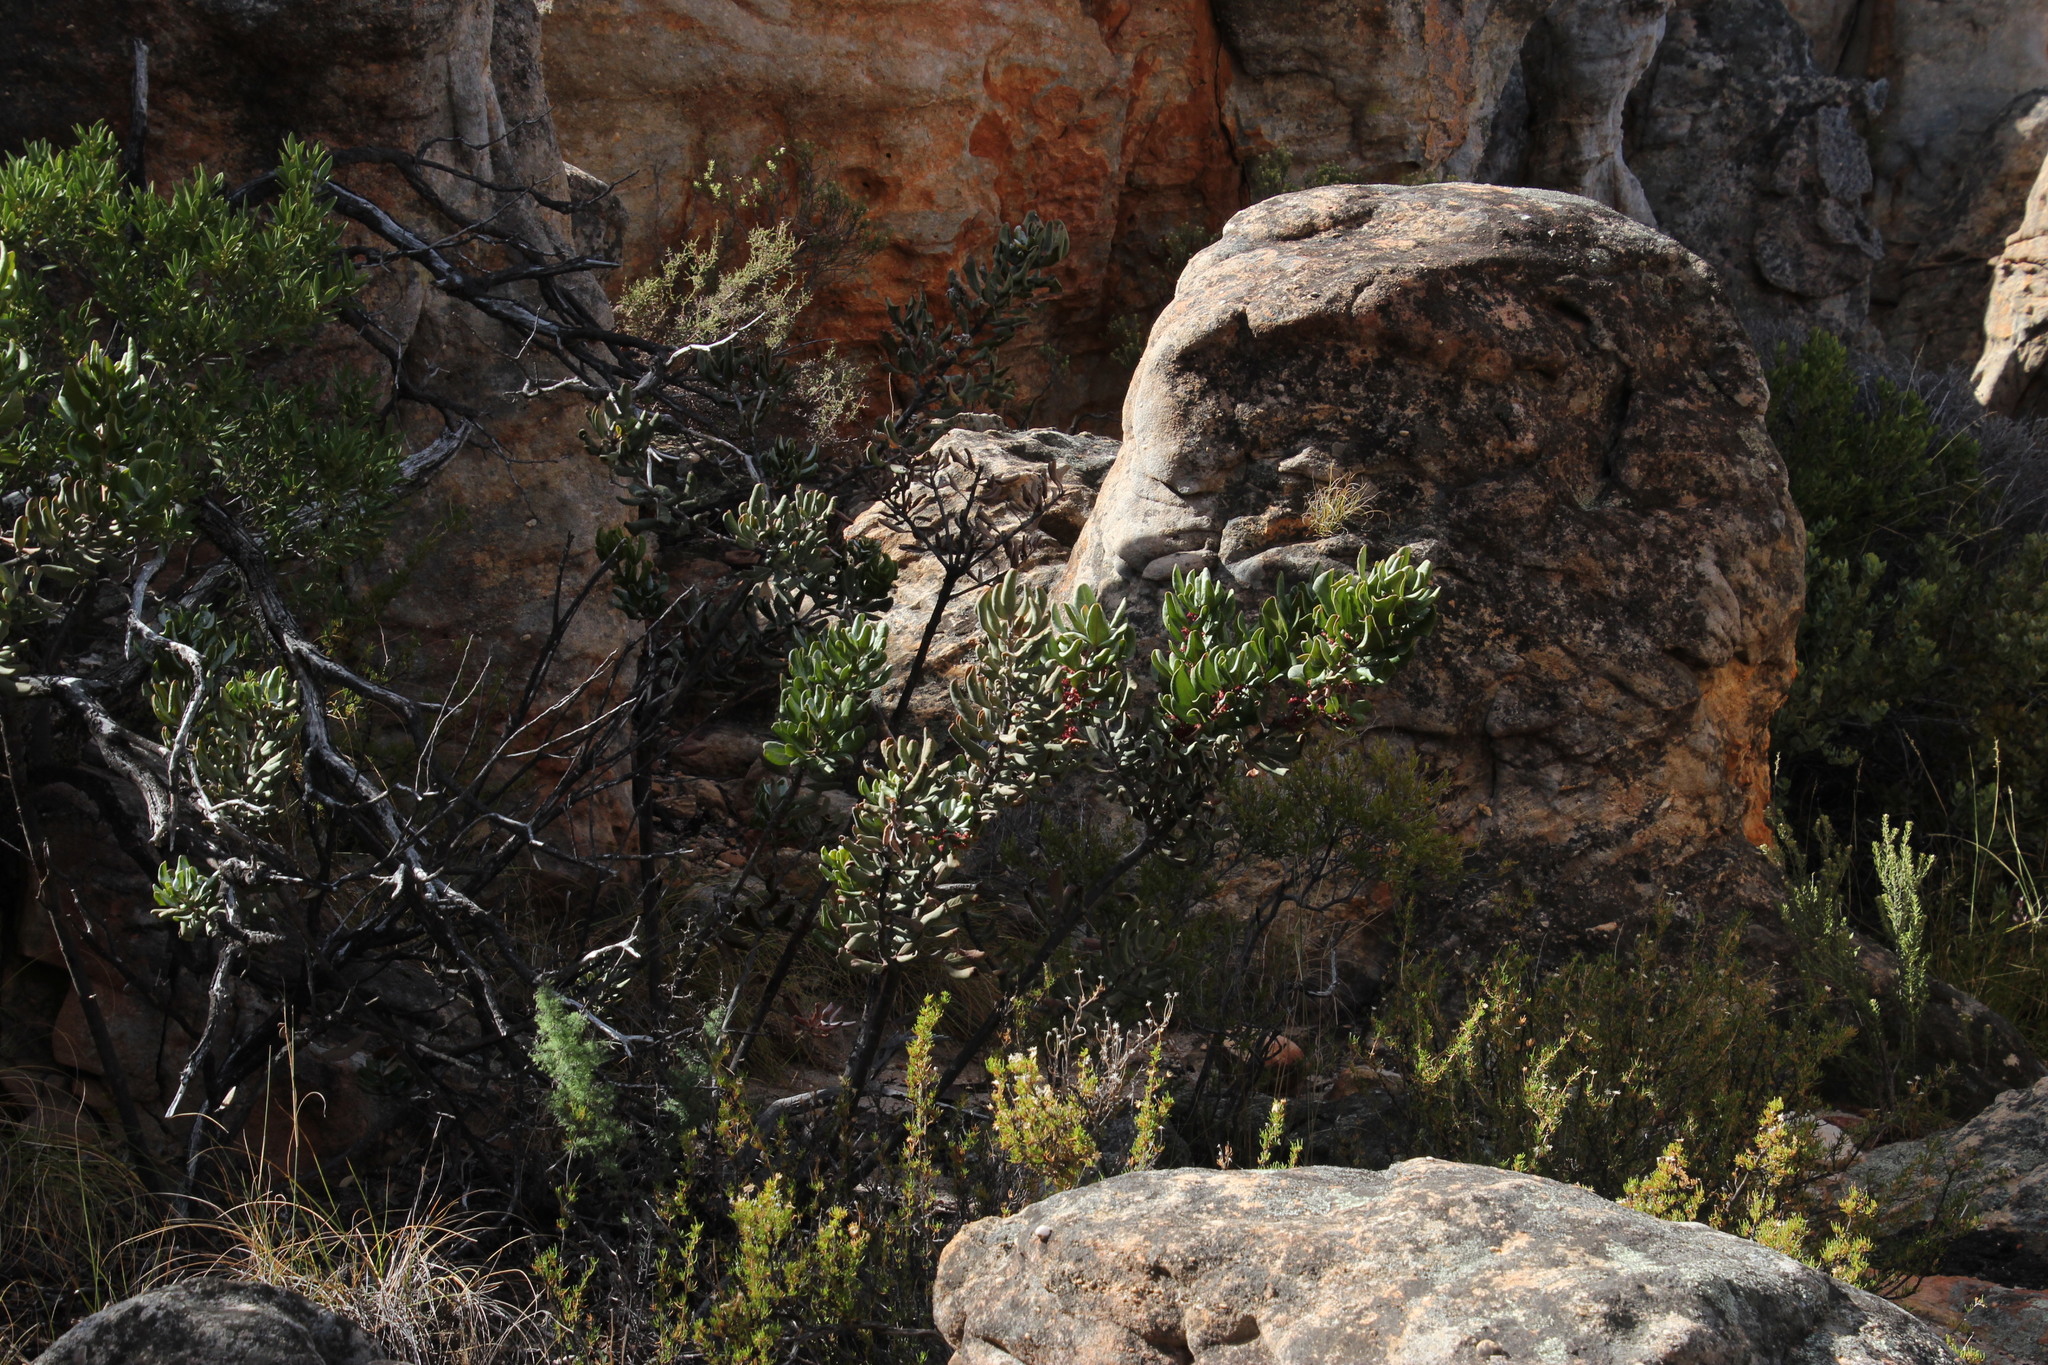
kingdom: Plantae
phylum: Tracheophyta
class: Magnoliopsida
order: Sapindales
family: Anacardiaceae
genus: Searsia
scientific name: Searsia scytophylla
